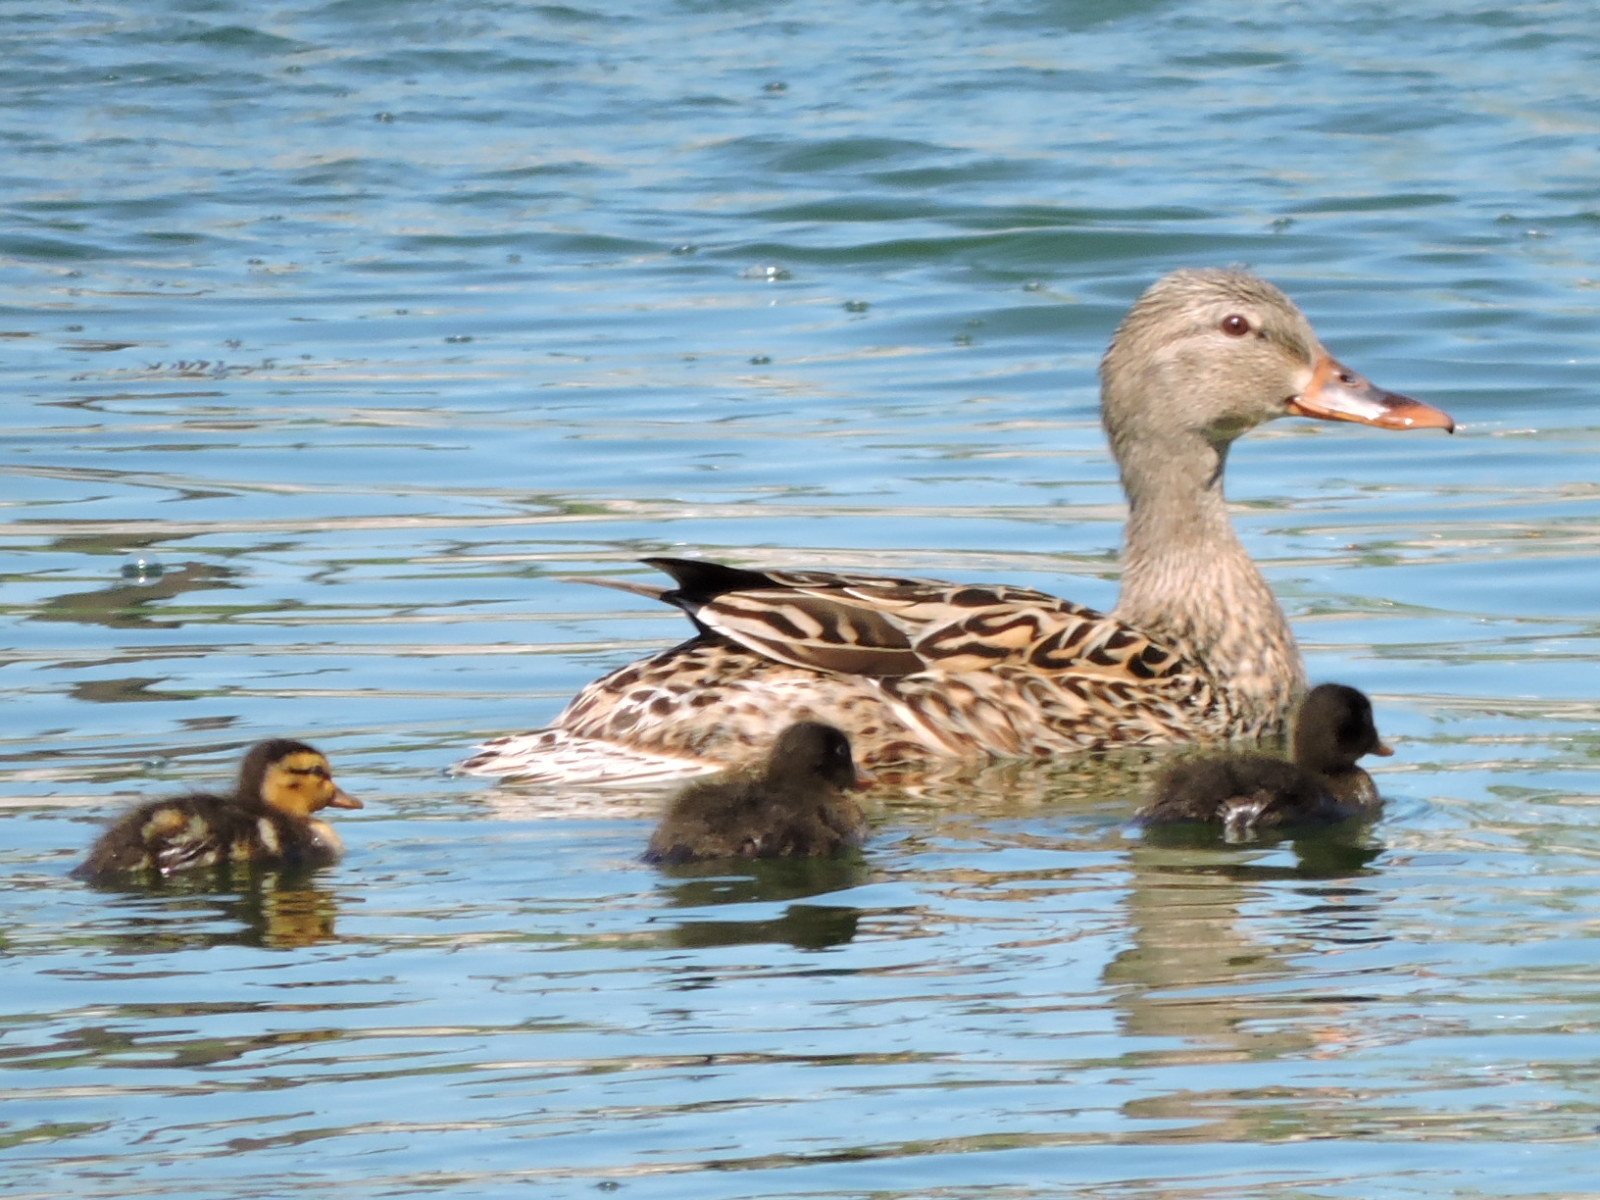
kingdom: Animalia
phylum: Chordata
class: Aves
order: Anseriformes
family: Anatidae
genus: Anas
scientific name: Anas platyrhynchos
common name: Mallard
